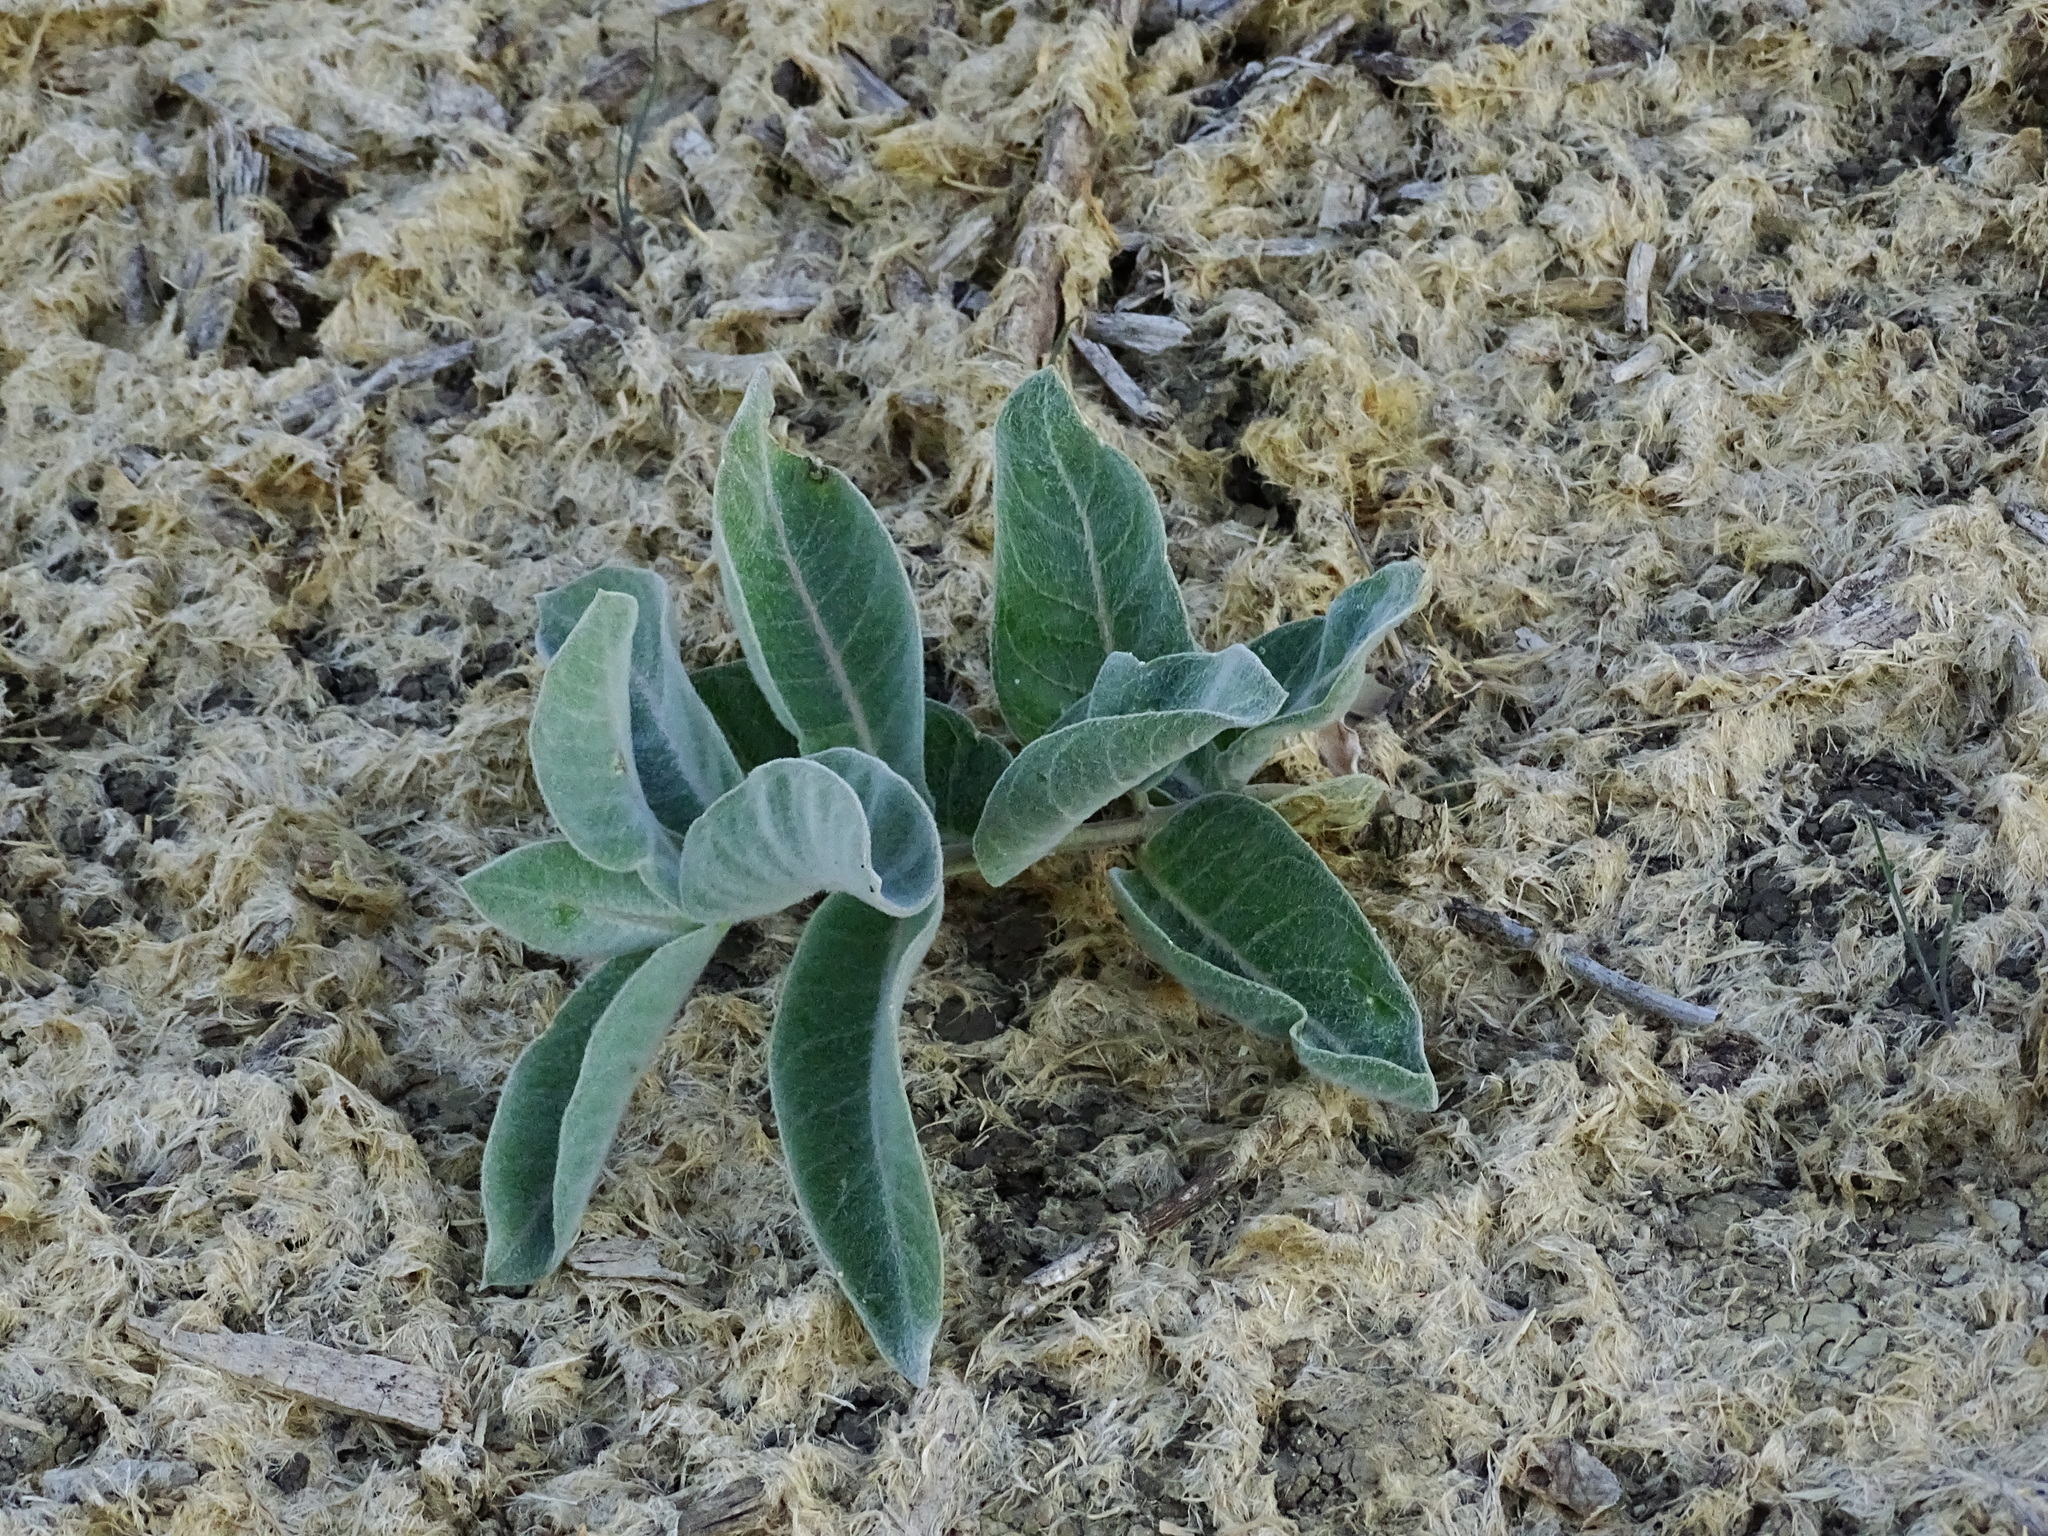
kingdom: Plantae
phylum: Tracheophyta
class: Magnoliopsida
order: Gentianales
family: Apocynaceae
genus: Asclepias
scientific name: Asclepias eriocarpa
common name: Indian milkweed
